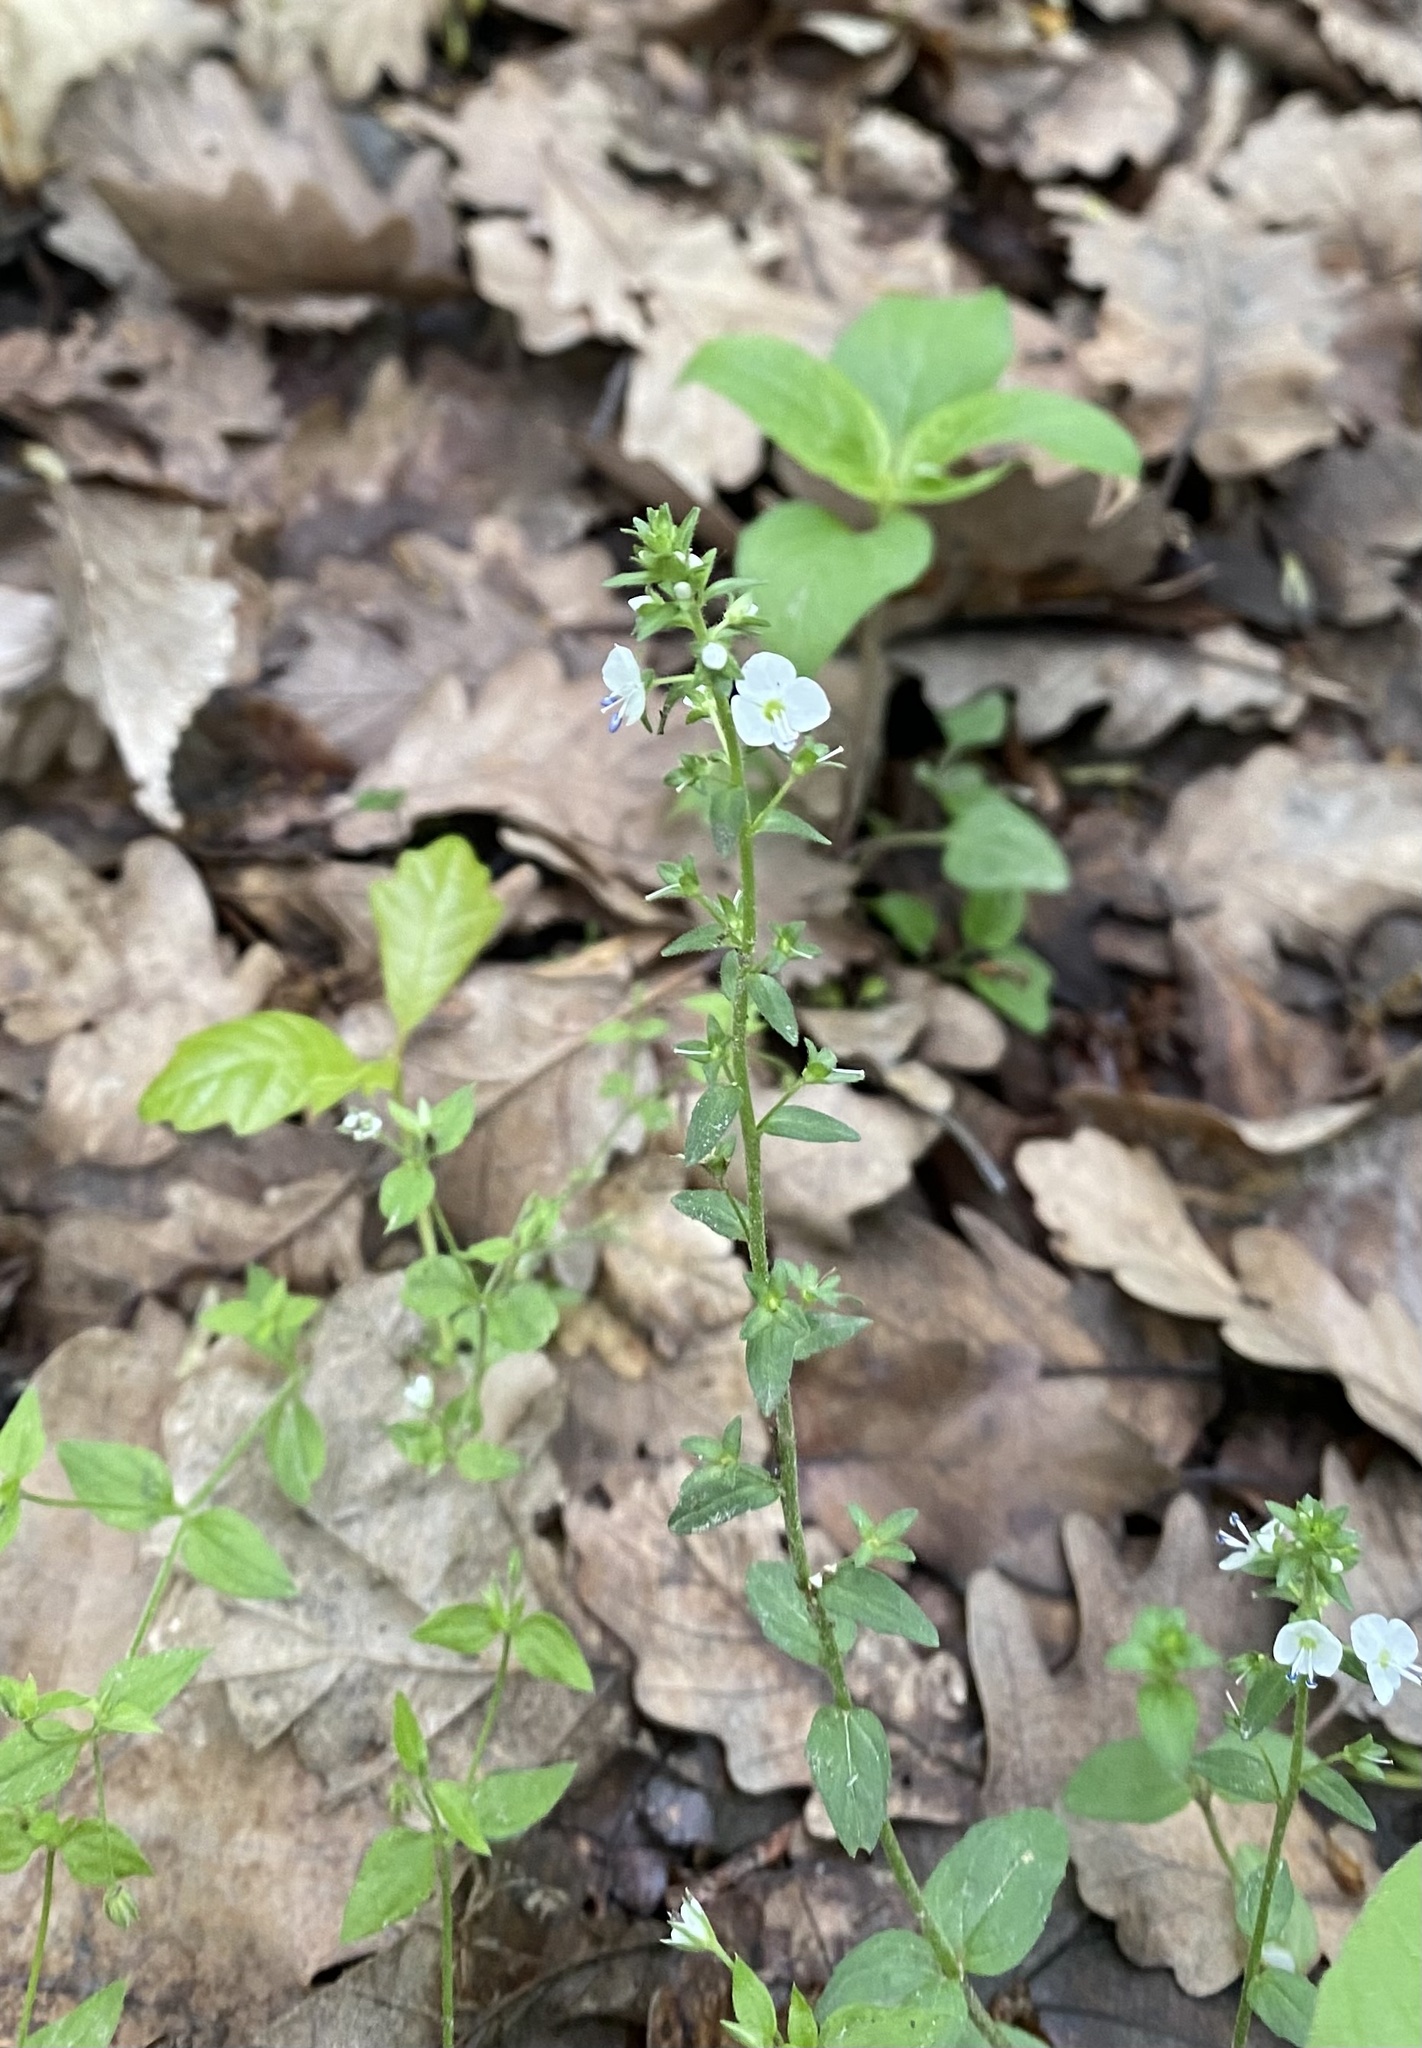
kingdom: Plantae
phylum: Tracheophyta
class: Magnoliopsida
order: Lamiales
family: Plantaginaceae
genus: Veronica
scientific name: Veronica serpyllifolia
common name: Thyme-leaved speedwell
